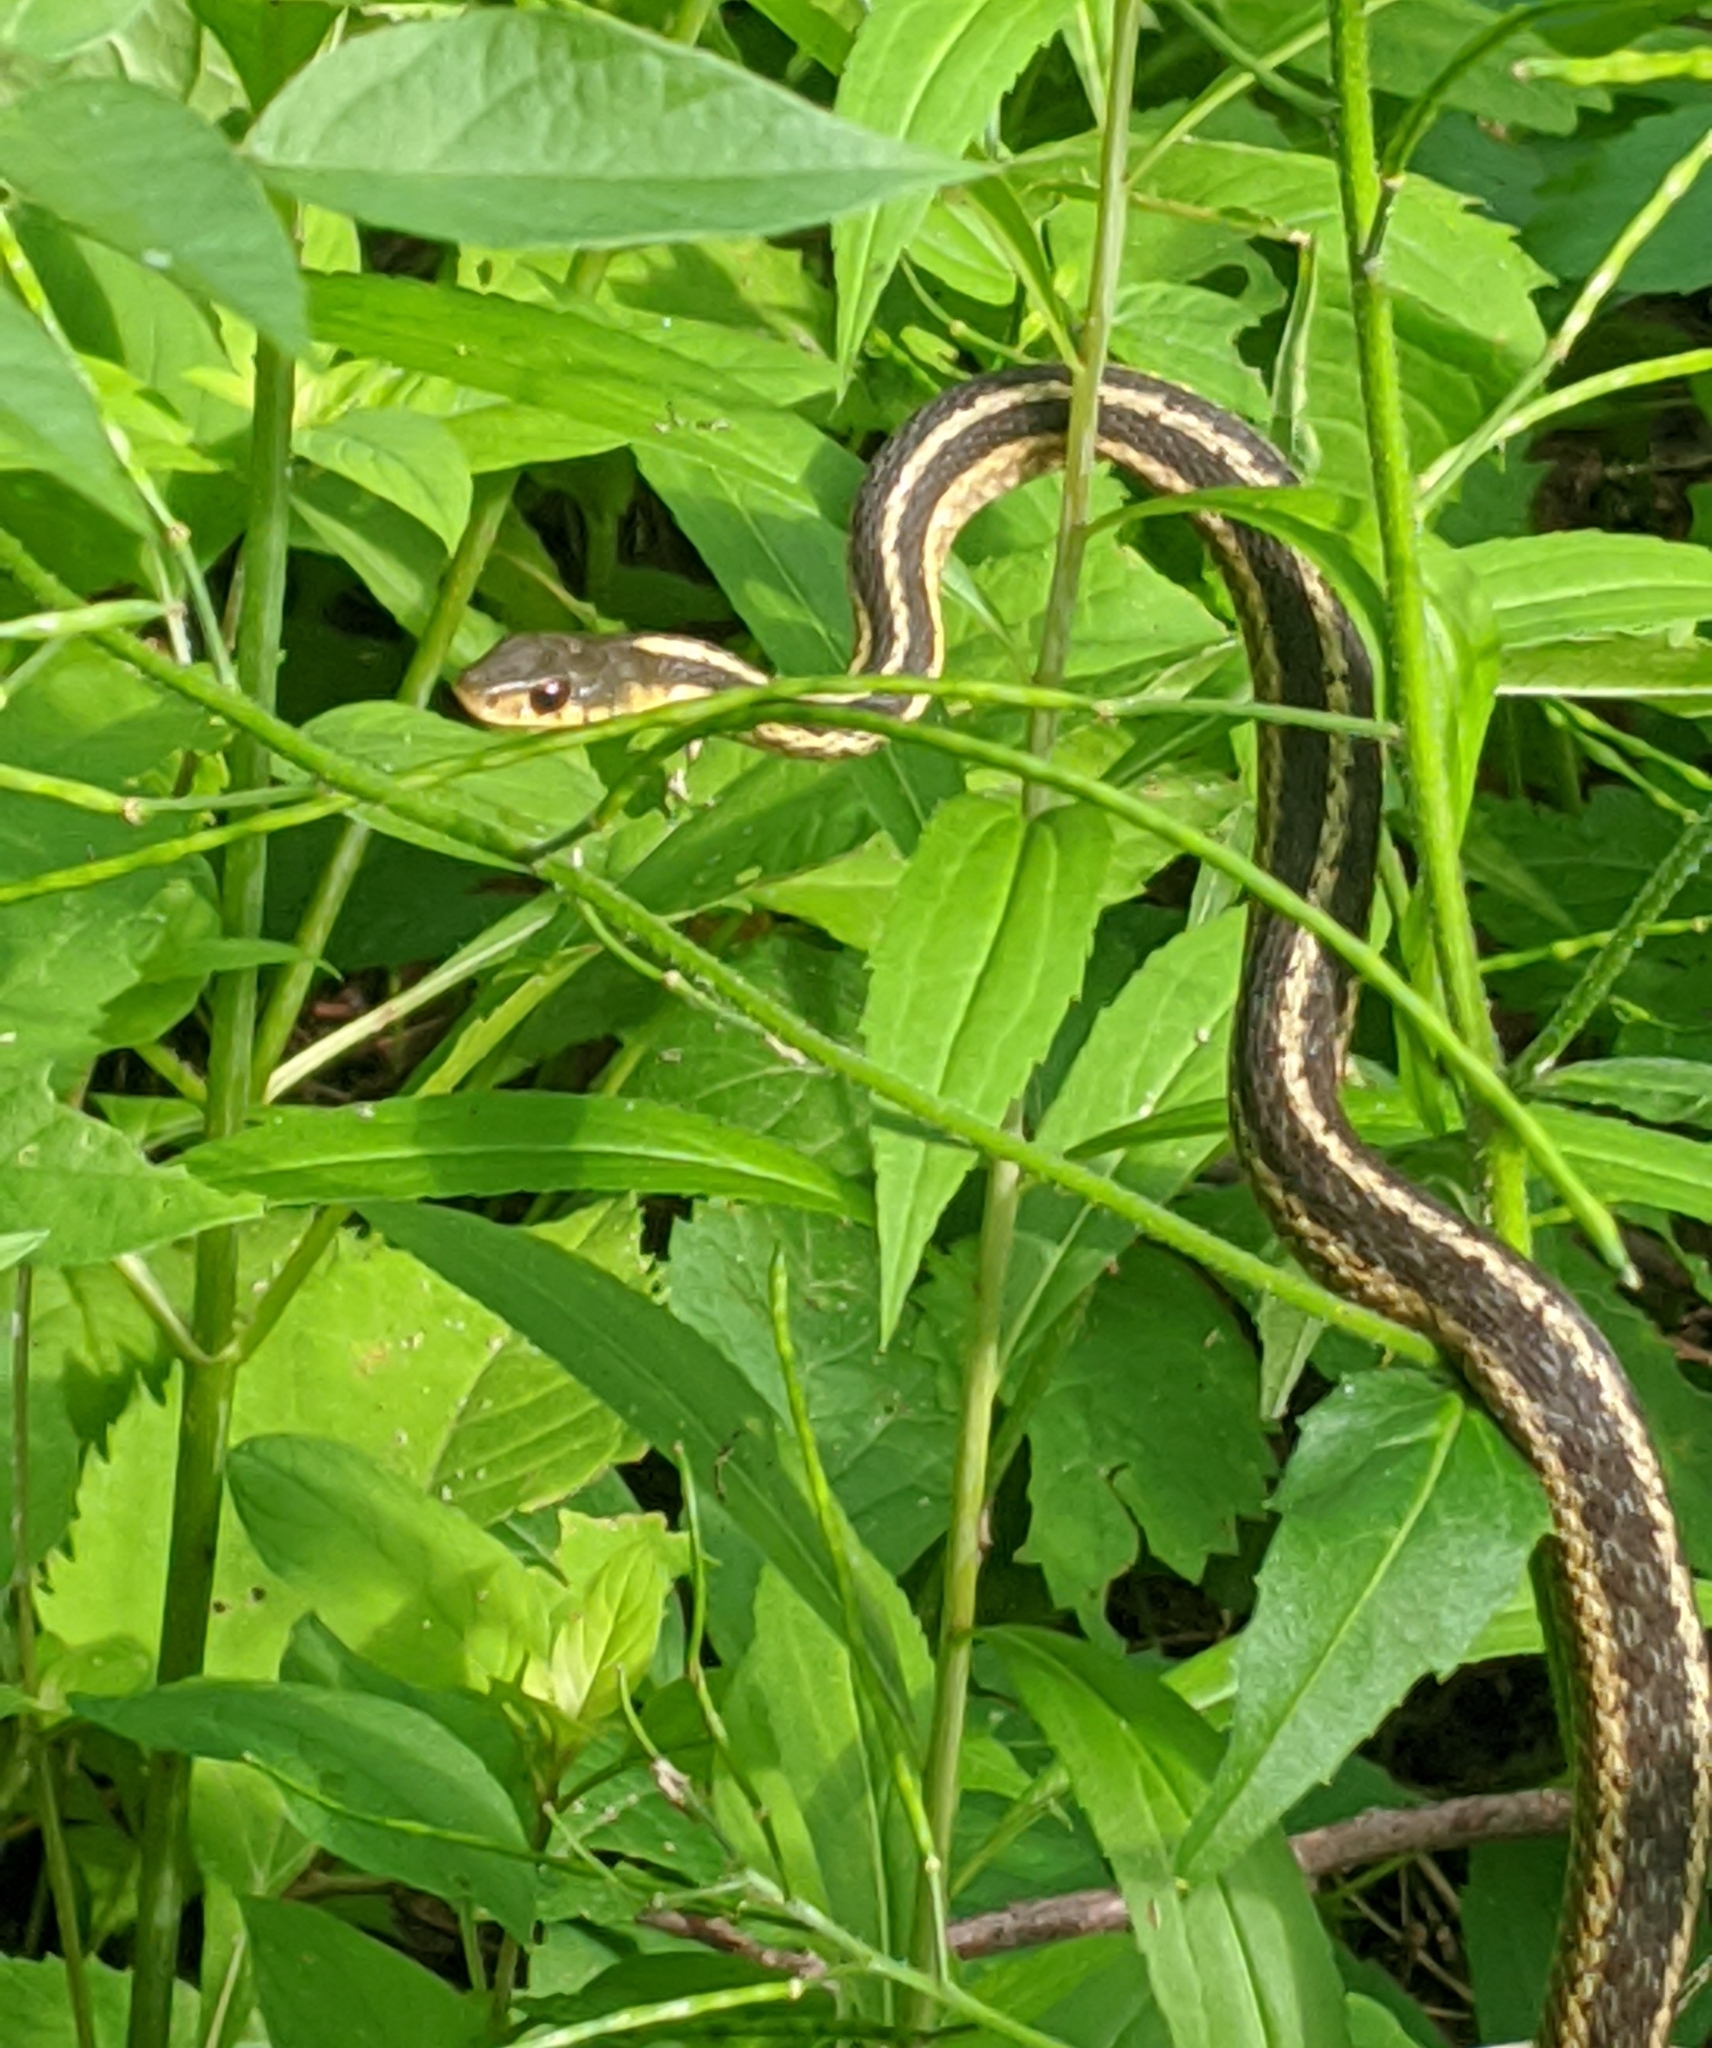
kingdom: Animalia
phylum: Chordata
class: Squamata
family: Colubridae
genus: Thamnophis
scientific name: Thamnophis sirtalis
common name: Common garter snake
